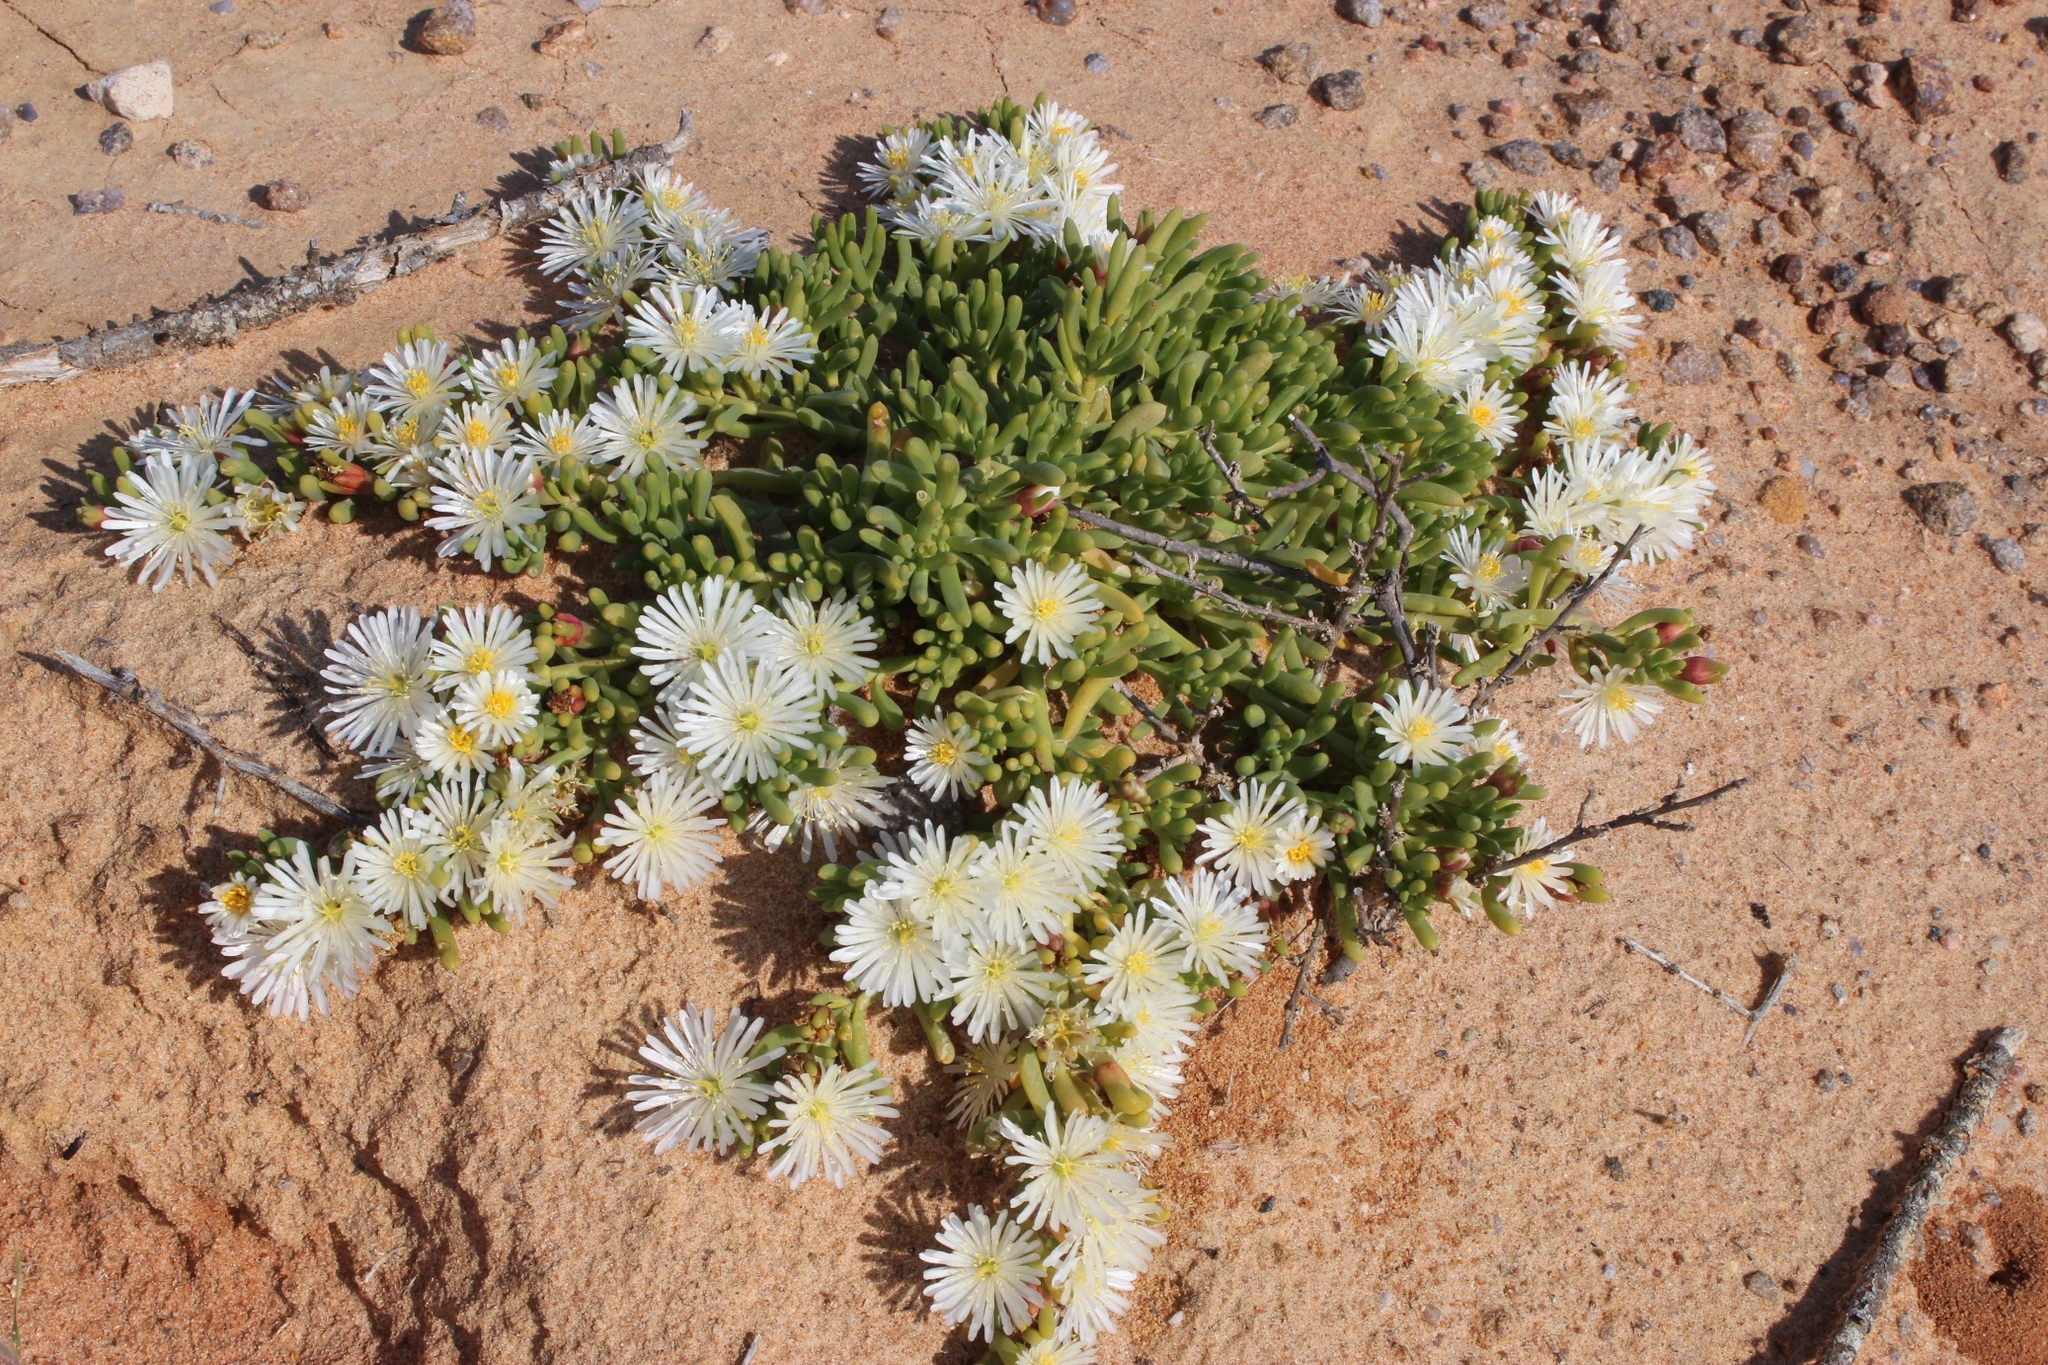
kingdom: Plantae
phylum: Tracheophyta
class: Magnoliopsida
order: Caryophyllales
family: Aizoaceae
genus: Mesembryanthemum
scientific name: Mesembryanthemum rapaceum
